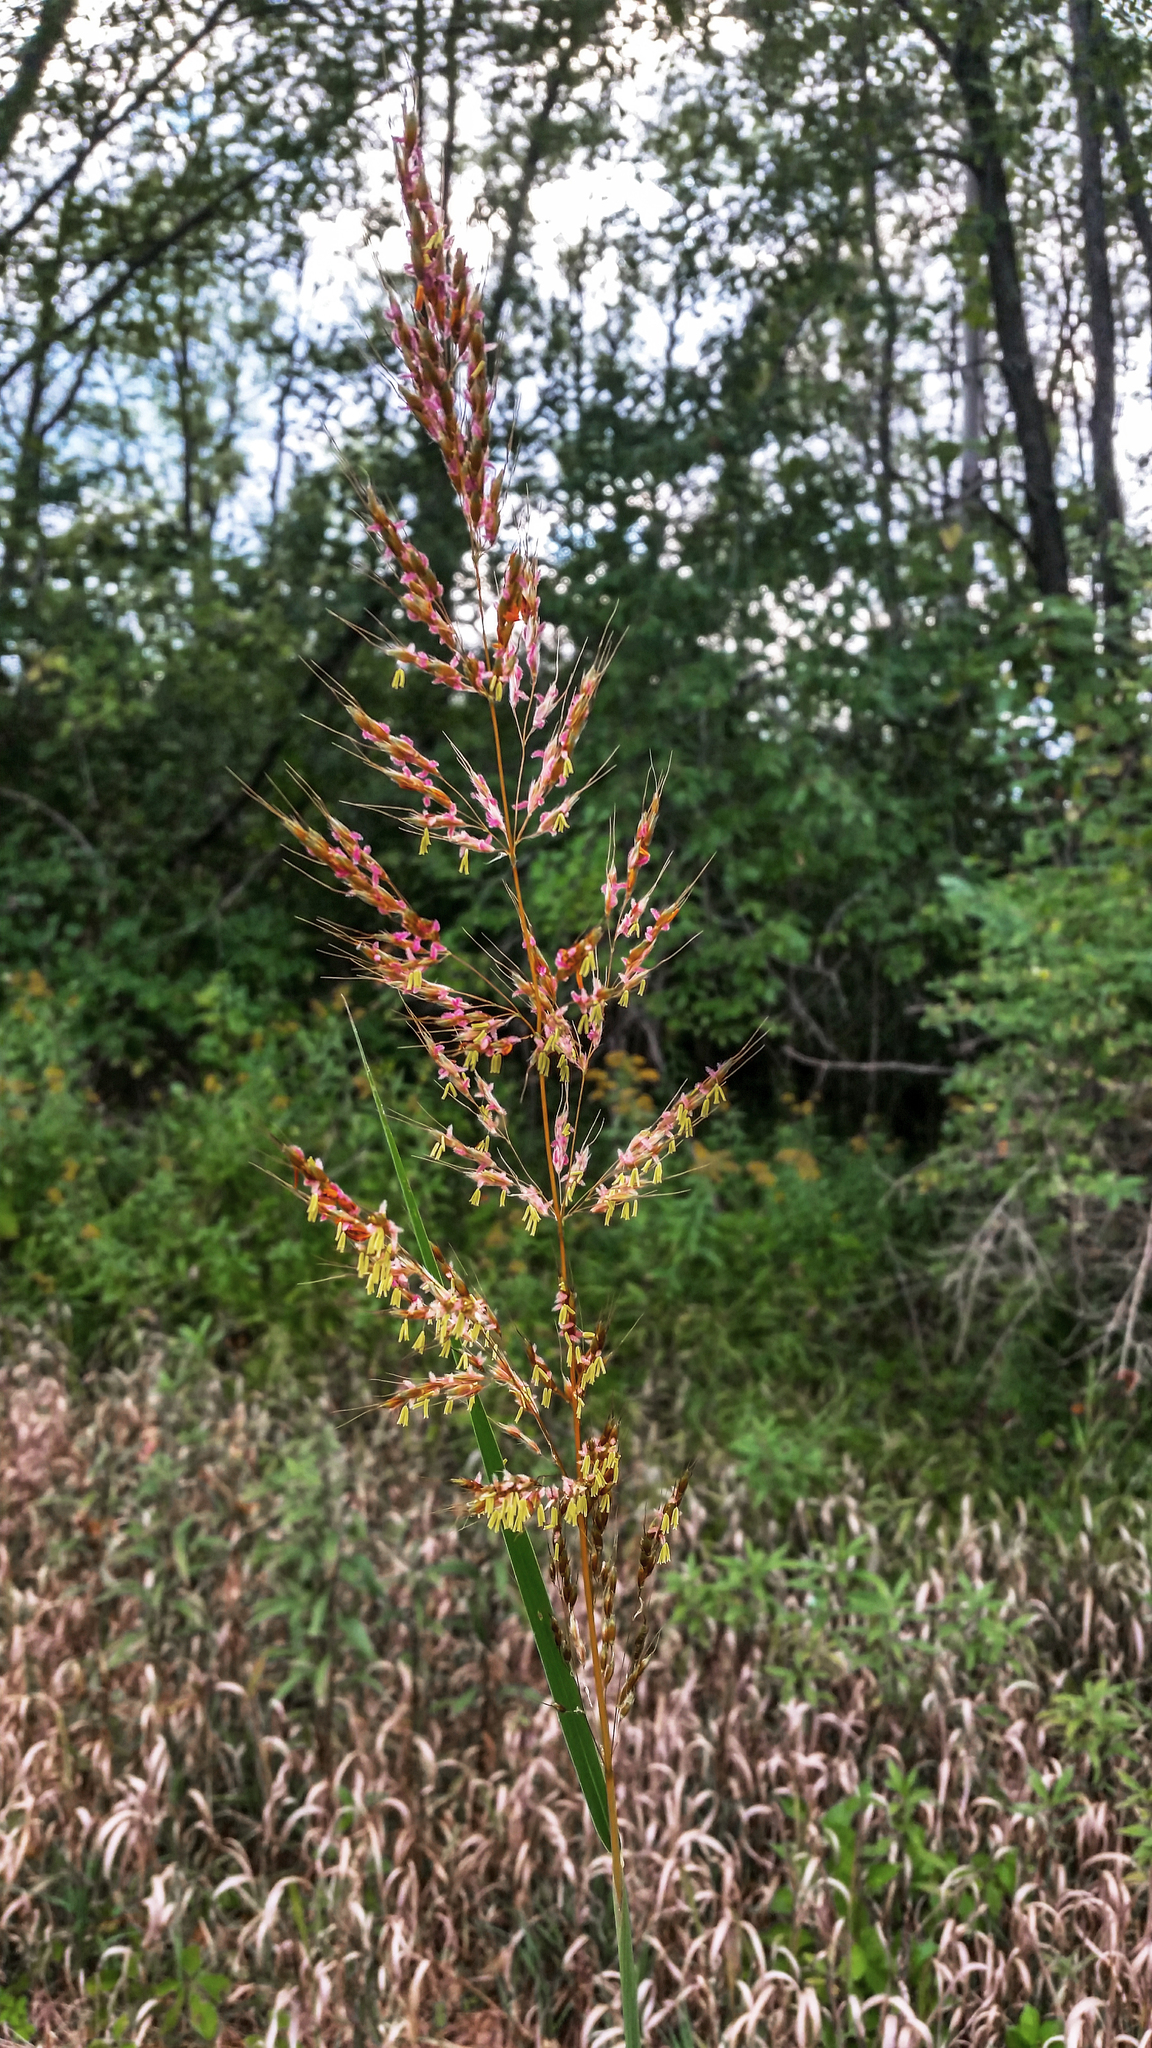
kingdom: Plantae
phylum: Tracheophyta
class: Liliopsida
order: Poales
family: Poaceae
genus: Sorghastrum
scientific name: Sorghastrum nutans
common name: Indian grass
